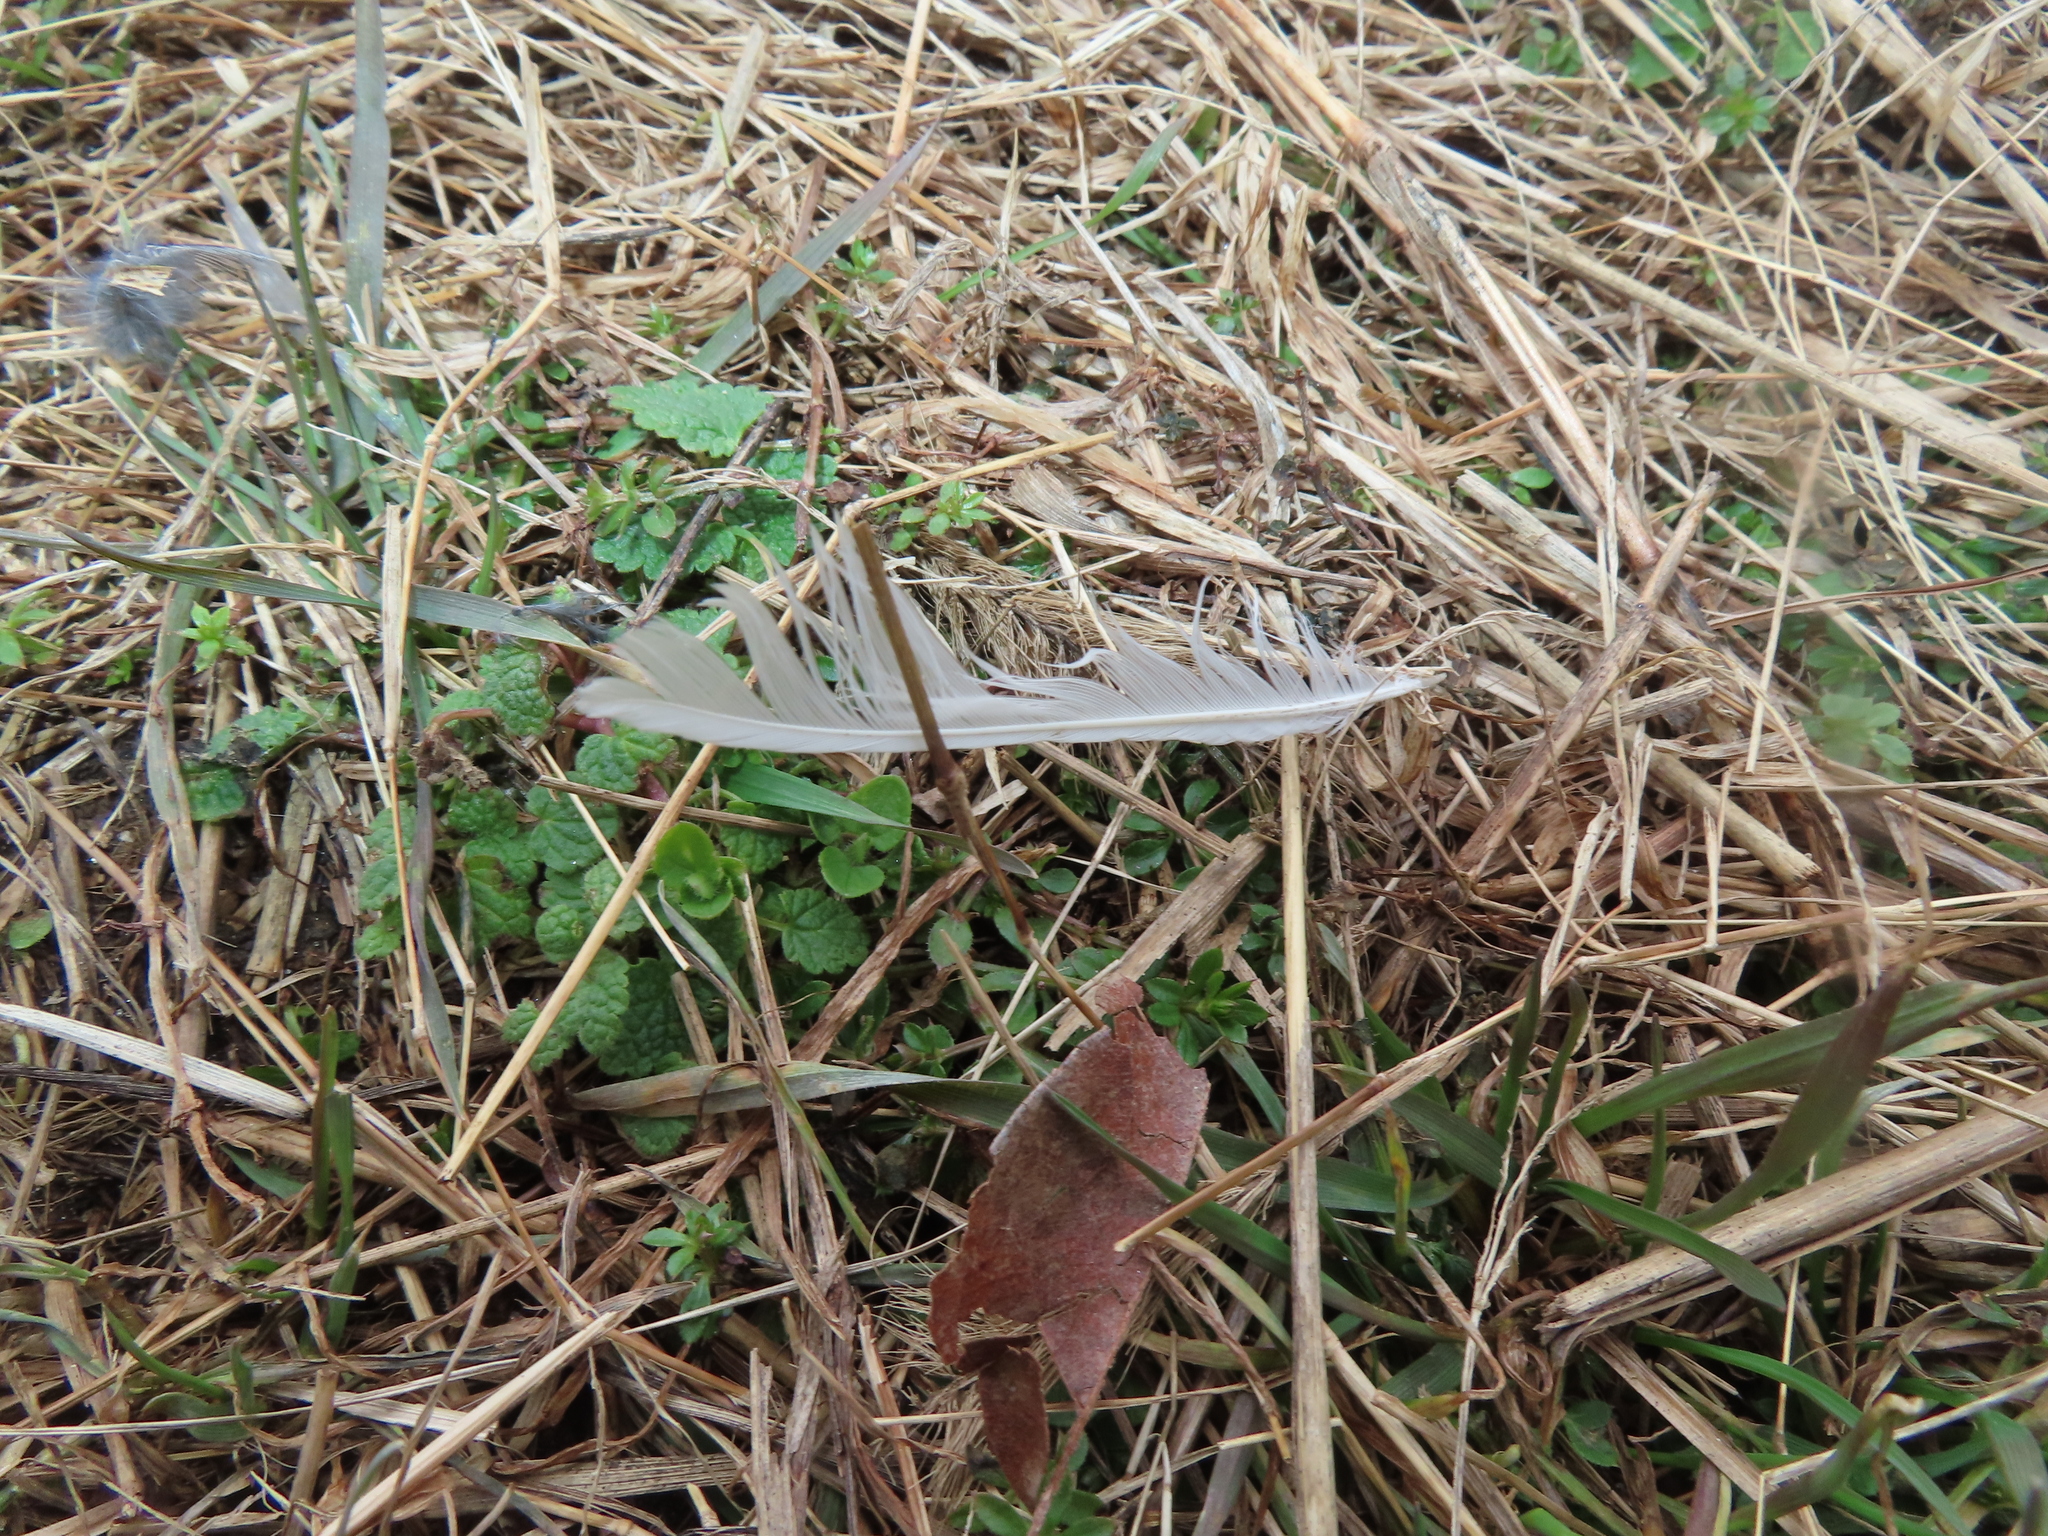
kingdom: Animalia
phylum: Chordata
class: Aves
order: Passeriformes
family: Passerellidae
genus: Junco
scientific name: Junco hyemalis
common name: Dark-eyed junco
